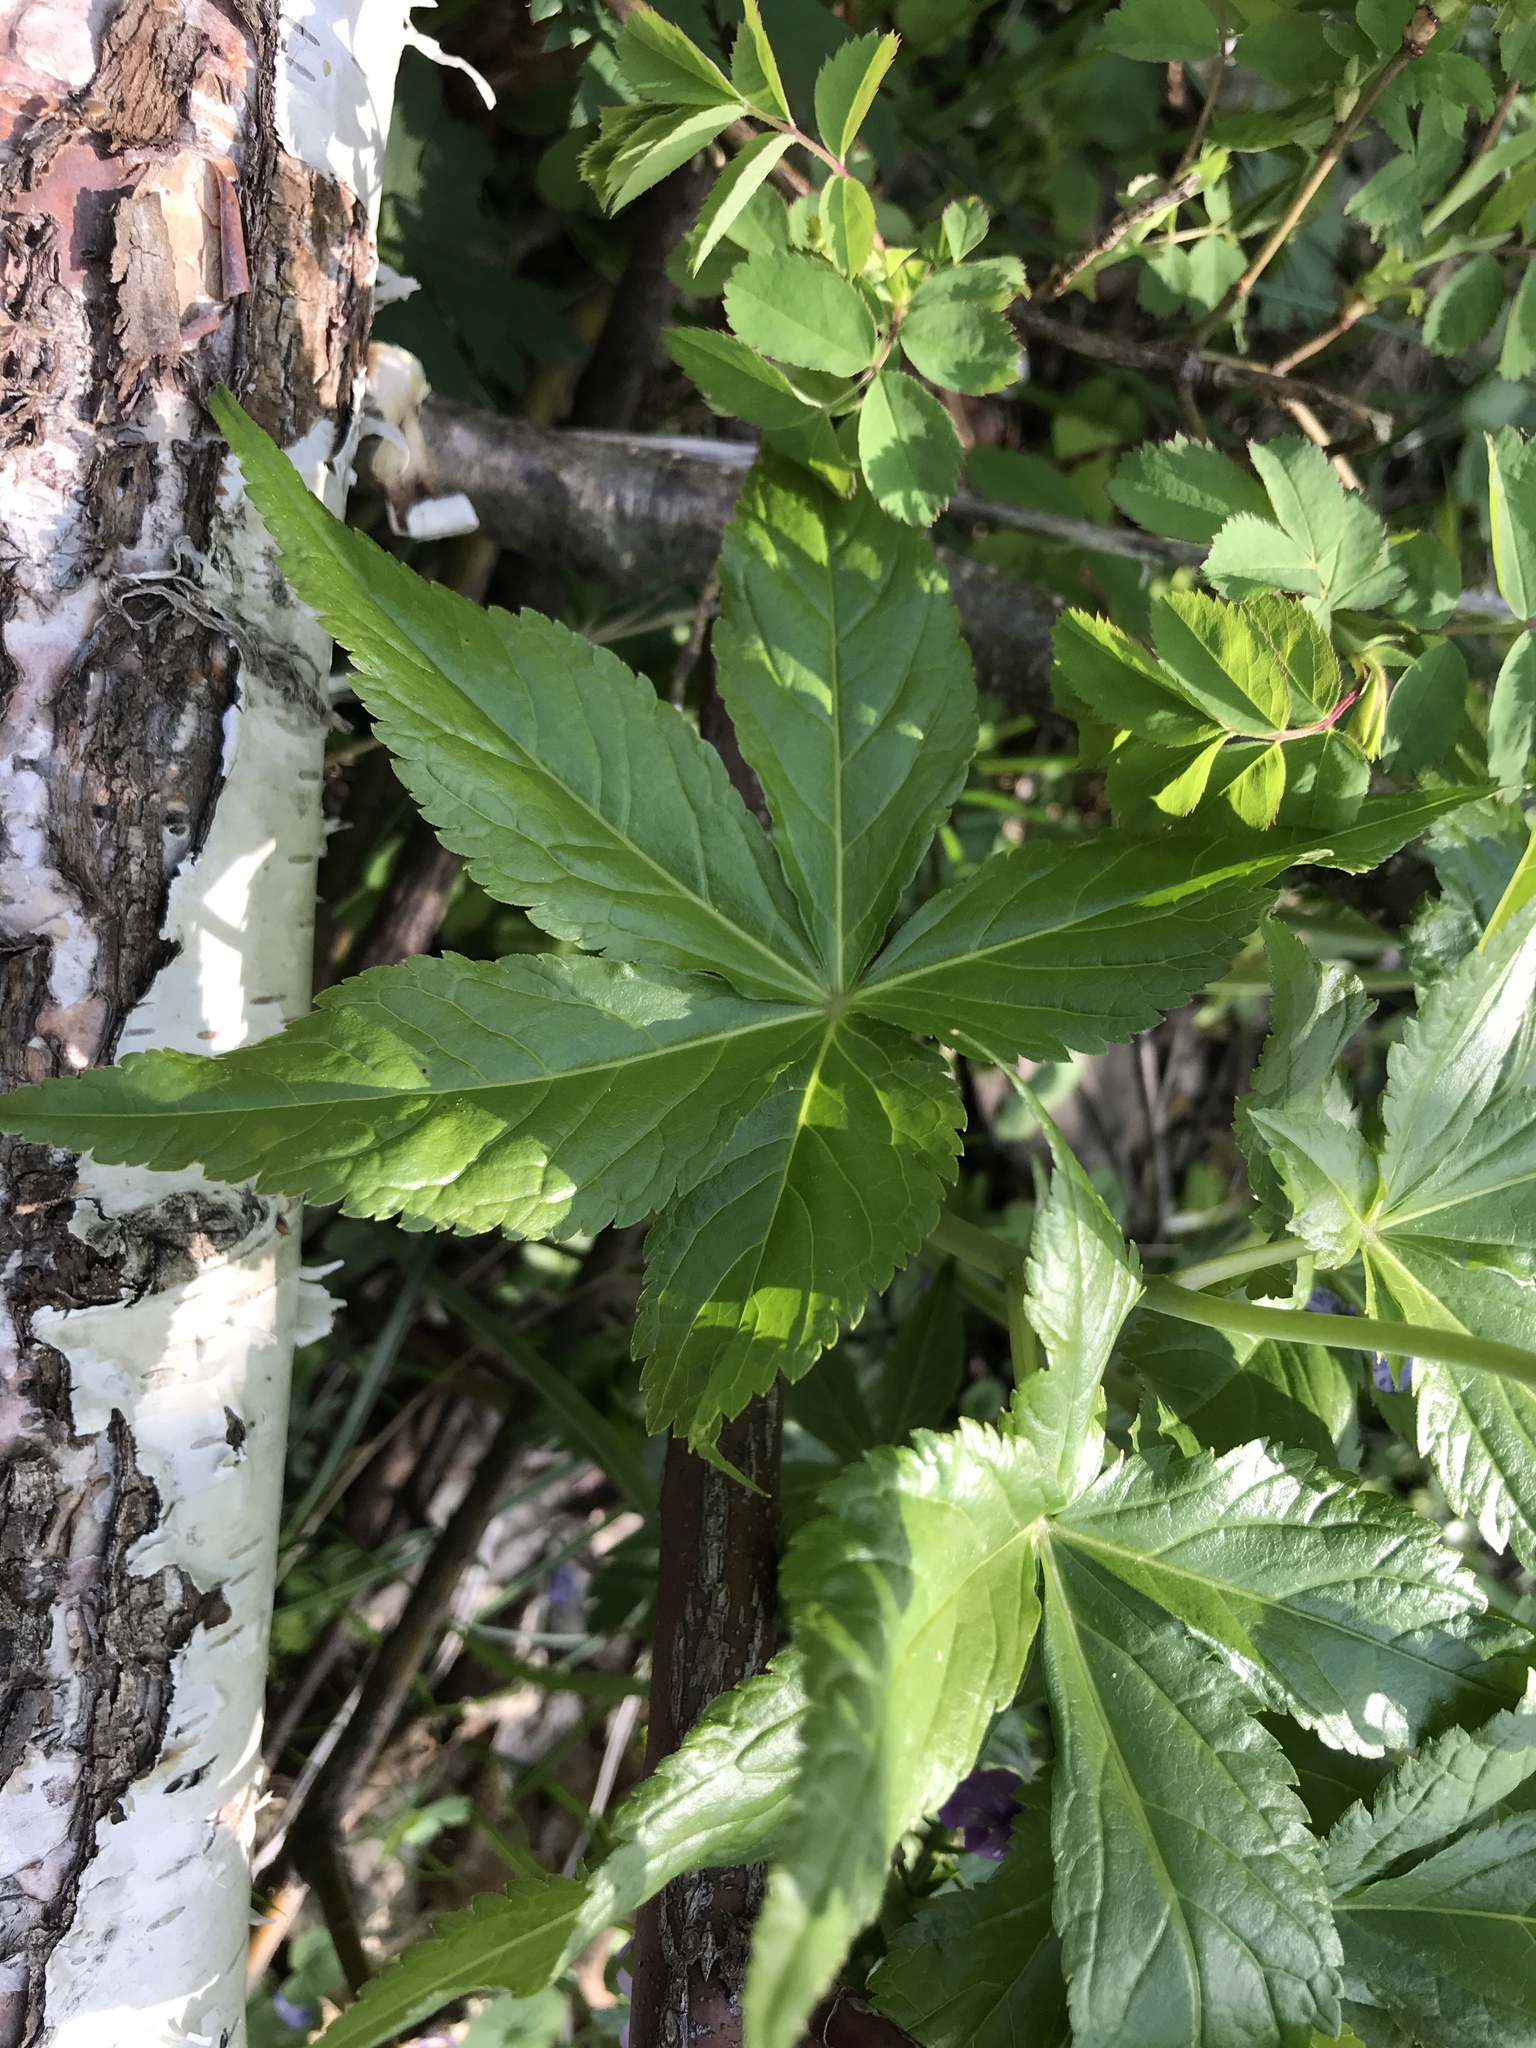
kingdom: Plantae
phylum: Tracheophyta
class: Magnoliopsida
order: Brassicales
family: Brassicaceae
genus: Cardamine
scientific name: Cardamine pentaphyllos
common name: Five-leaflet bitter-cress
